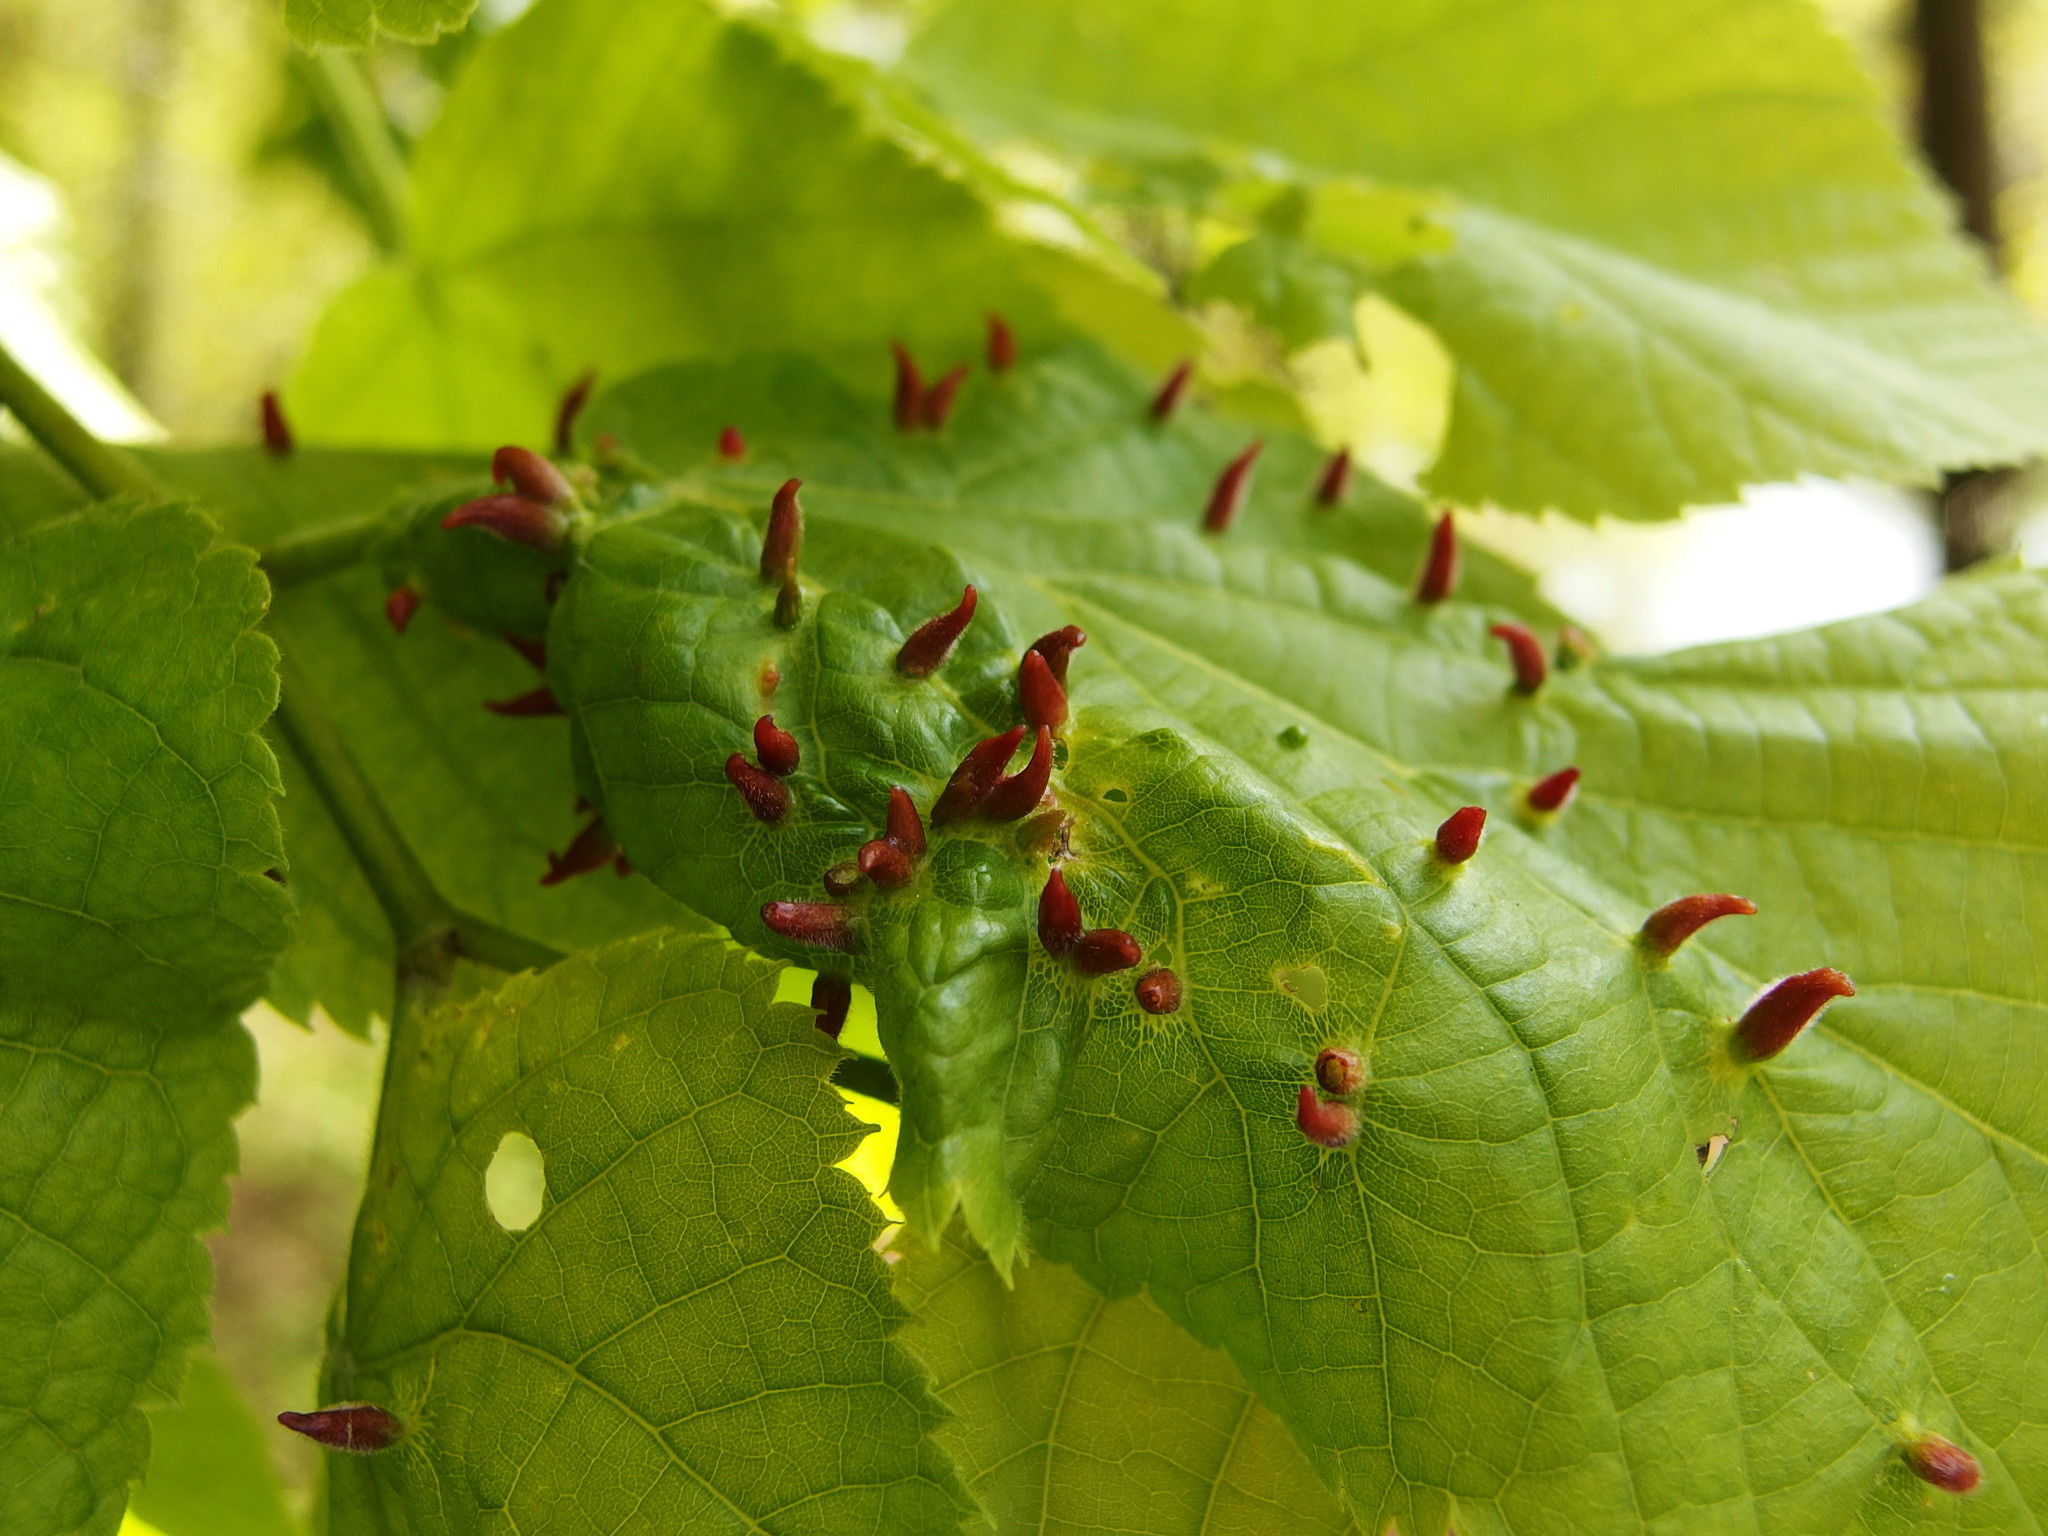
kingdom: Animalia
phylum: Arthropoda
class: Arachnida
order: Trombidiformes
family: Eriophyidae
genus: Eriophyes
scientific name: Eriophyes tiliae
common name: Red nail gall mite
